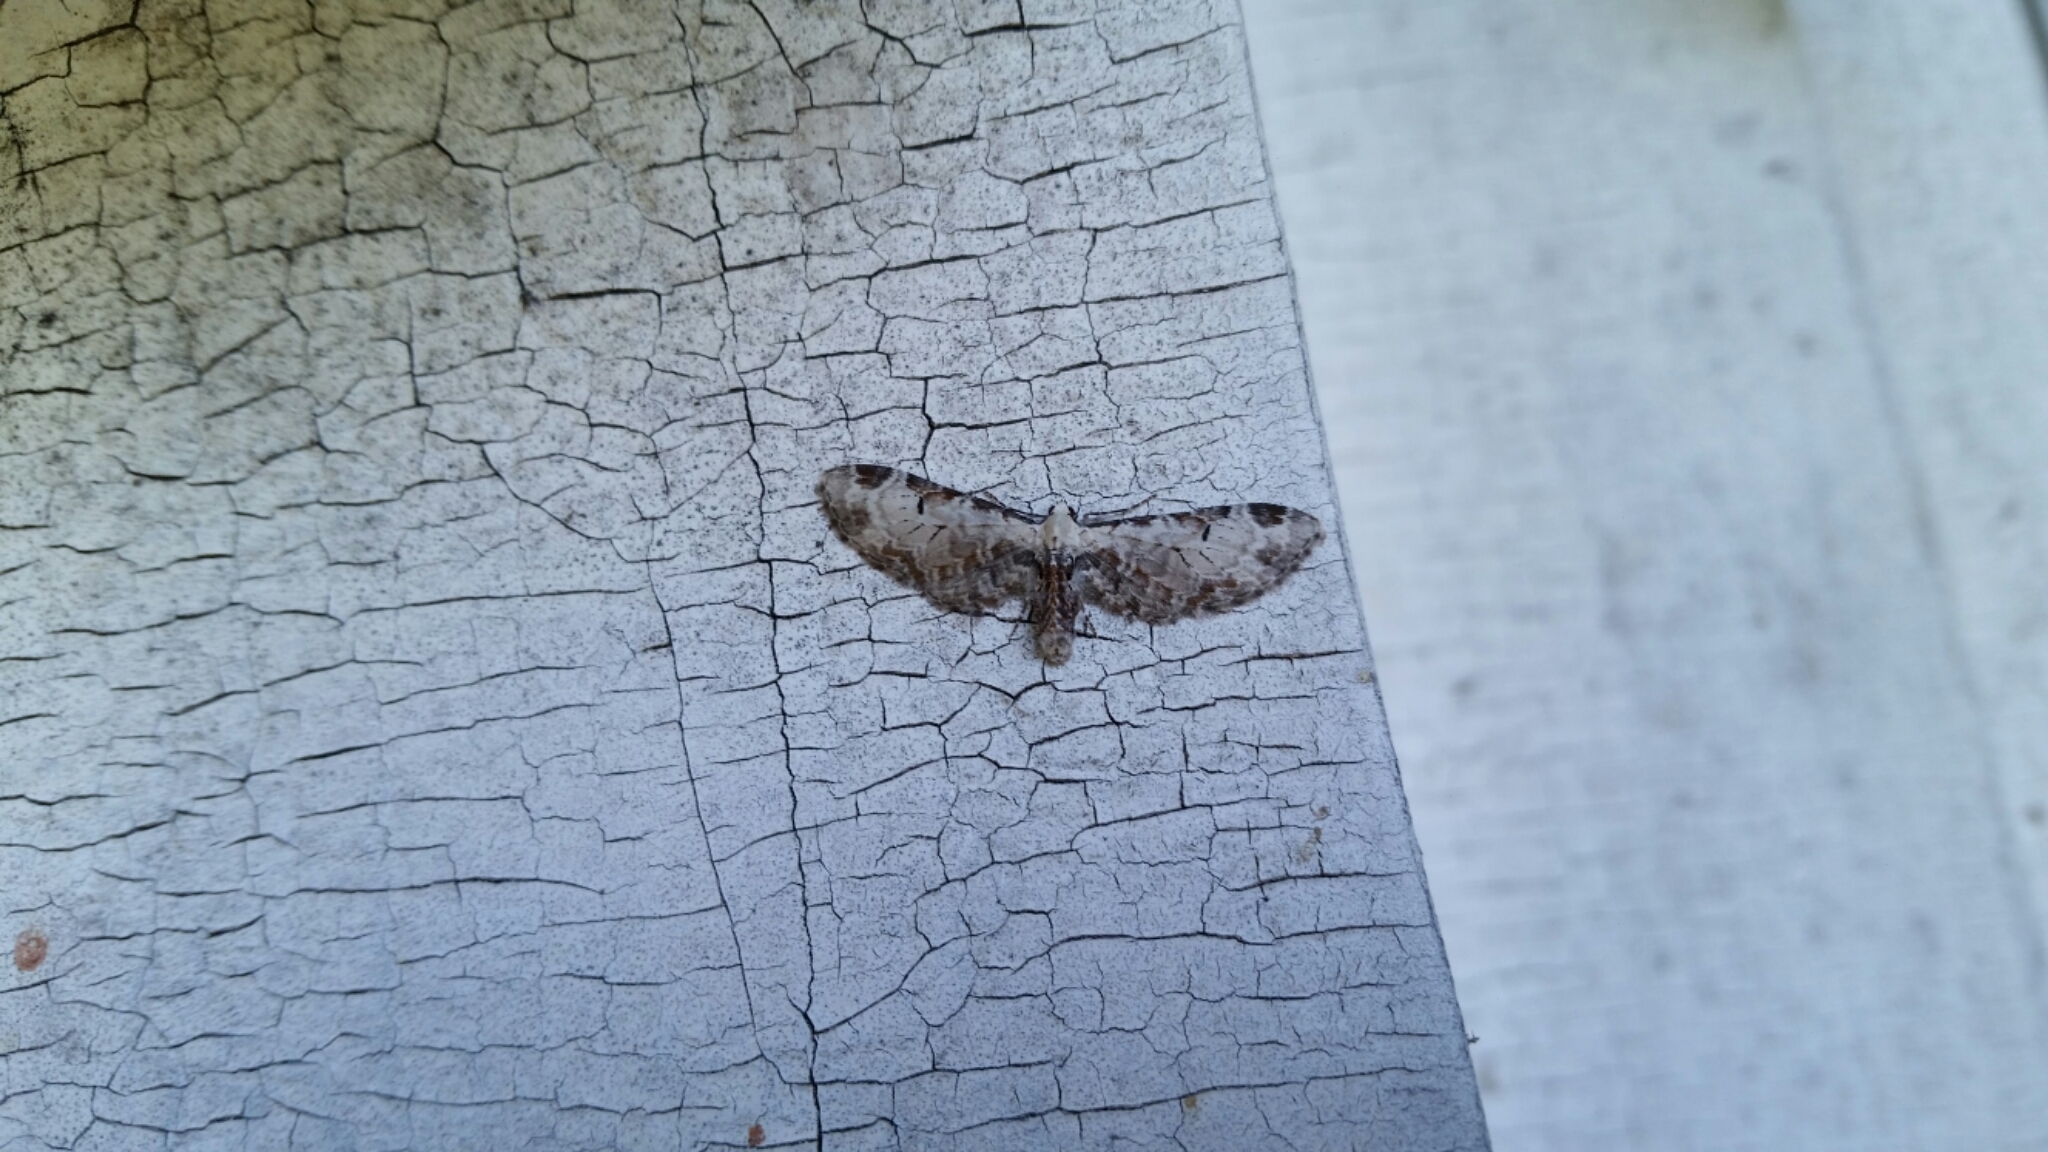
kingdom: Animalia
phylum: Arthropoda
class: Insecta
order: Lepidoptera
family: Geometridae
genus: Eupithecia
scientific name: Eupithecia ravocostaliata
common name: Great varigated pug
